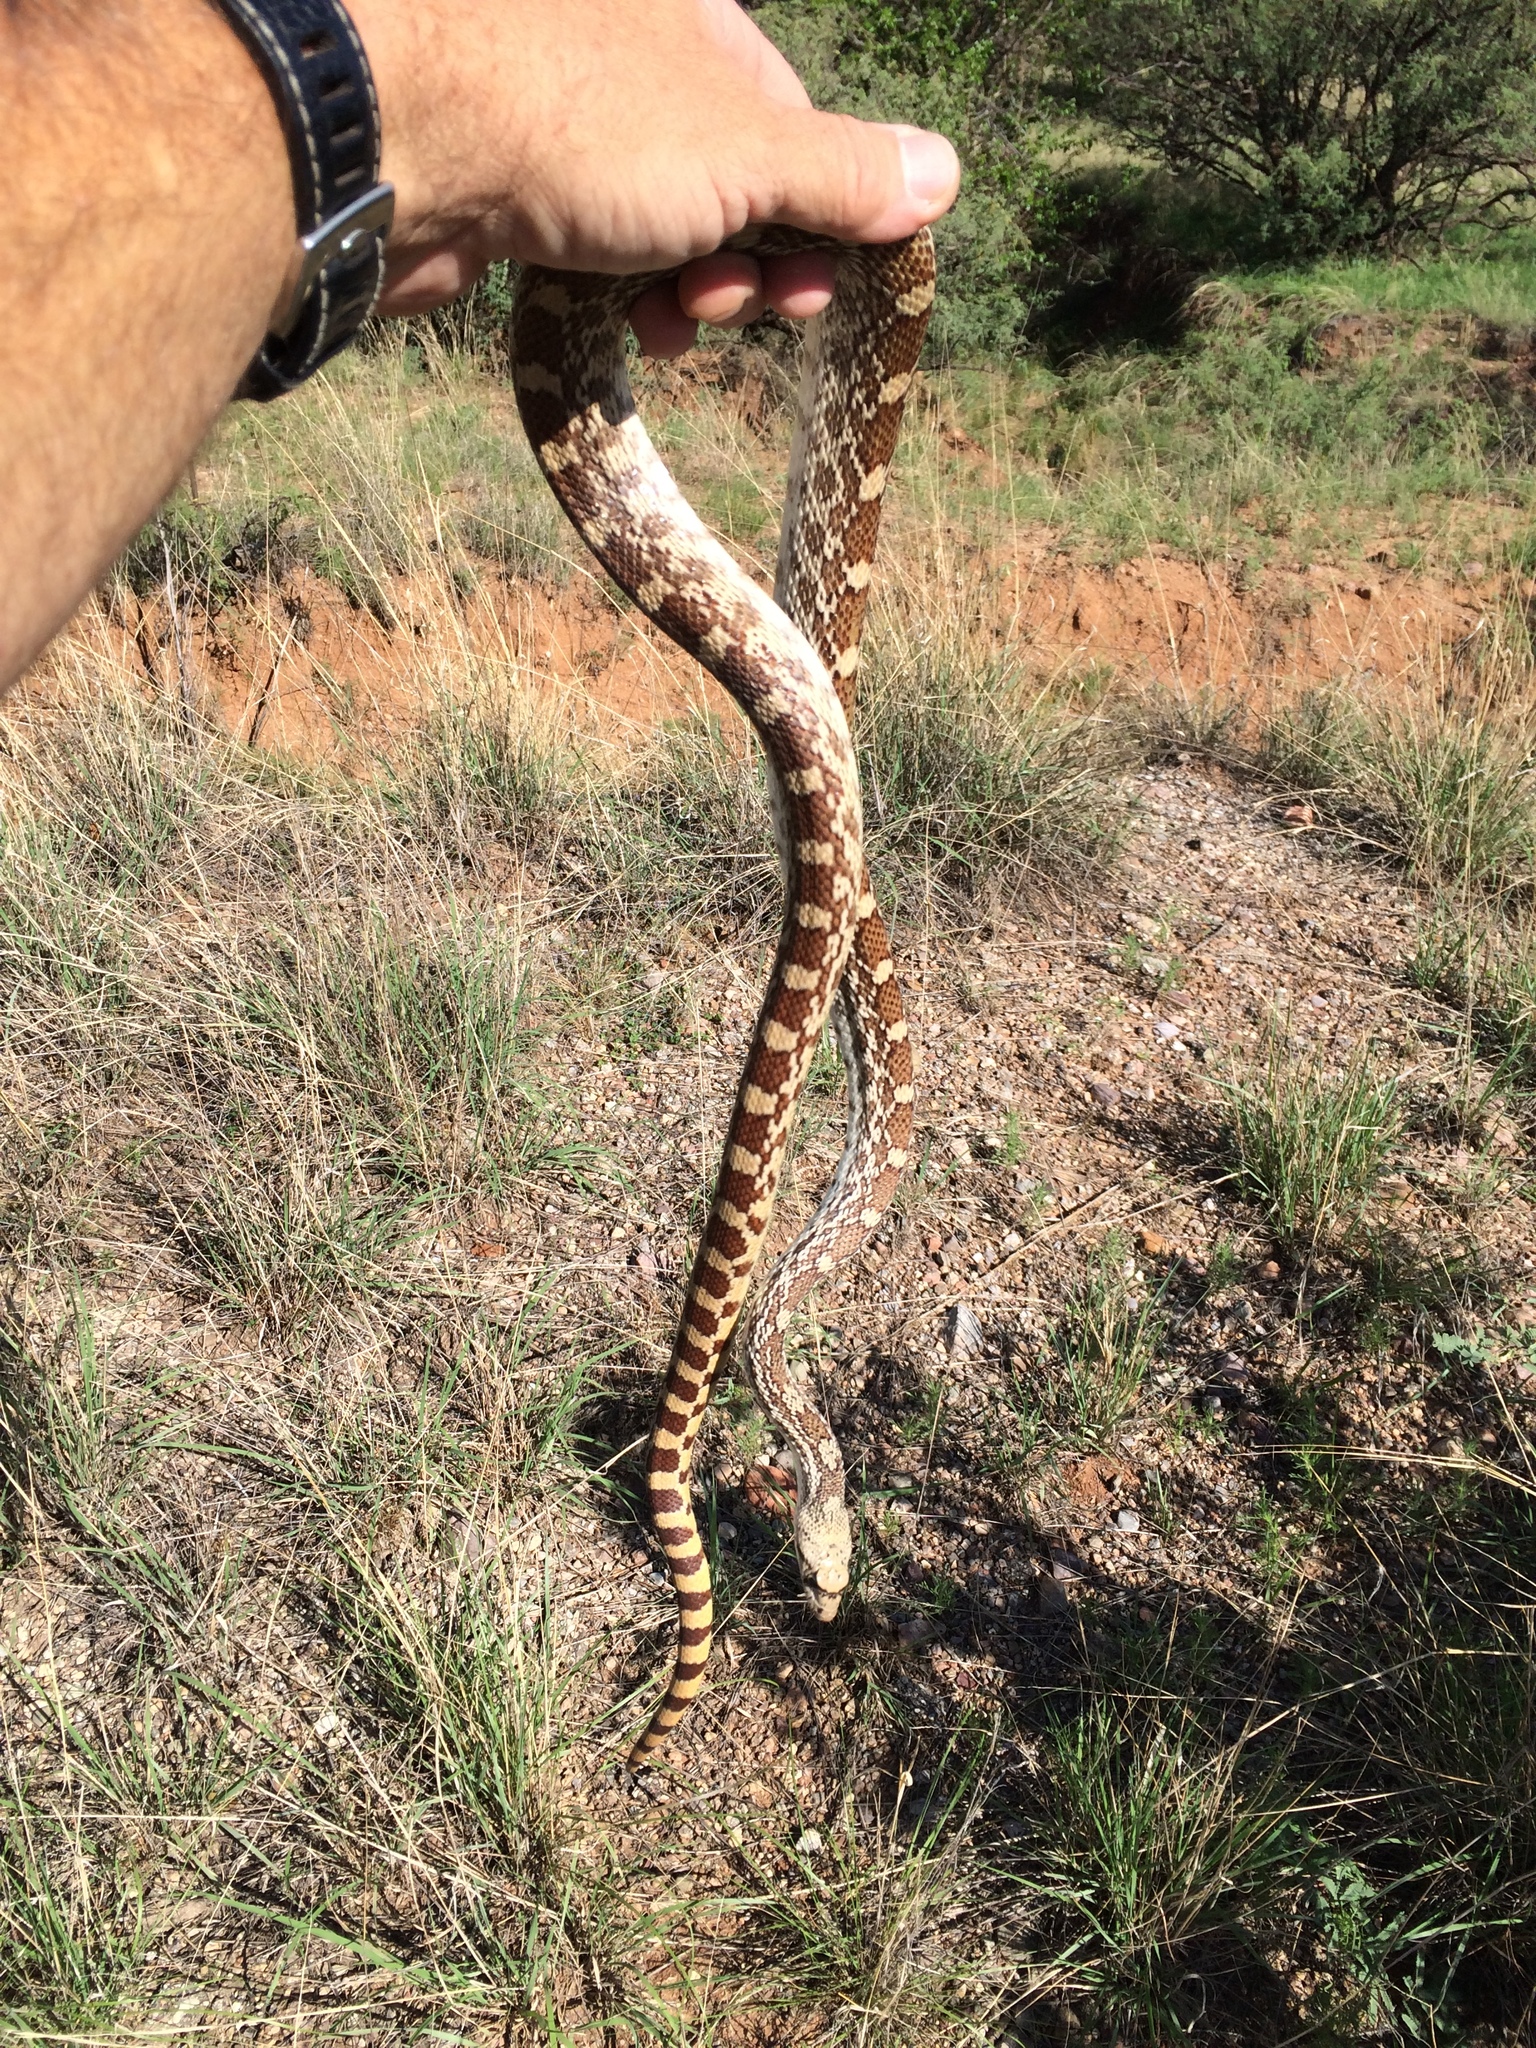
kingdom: Animalia
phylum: Chordata
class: Squamata
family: Colubridae
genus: Pituophis
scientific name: Pituophis catenifer
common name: Gopher snake
